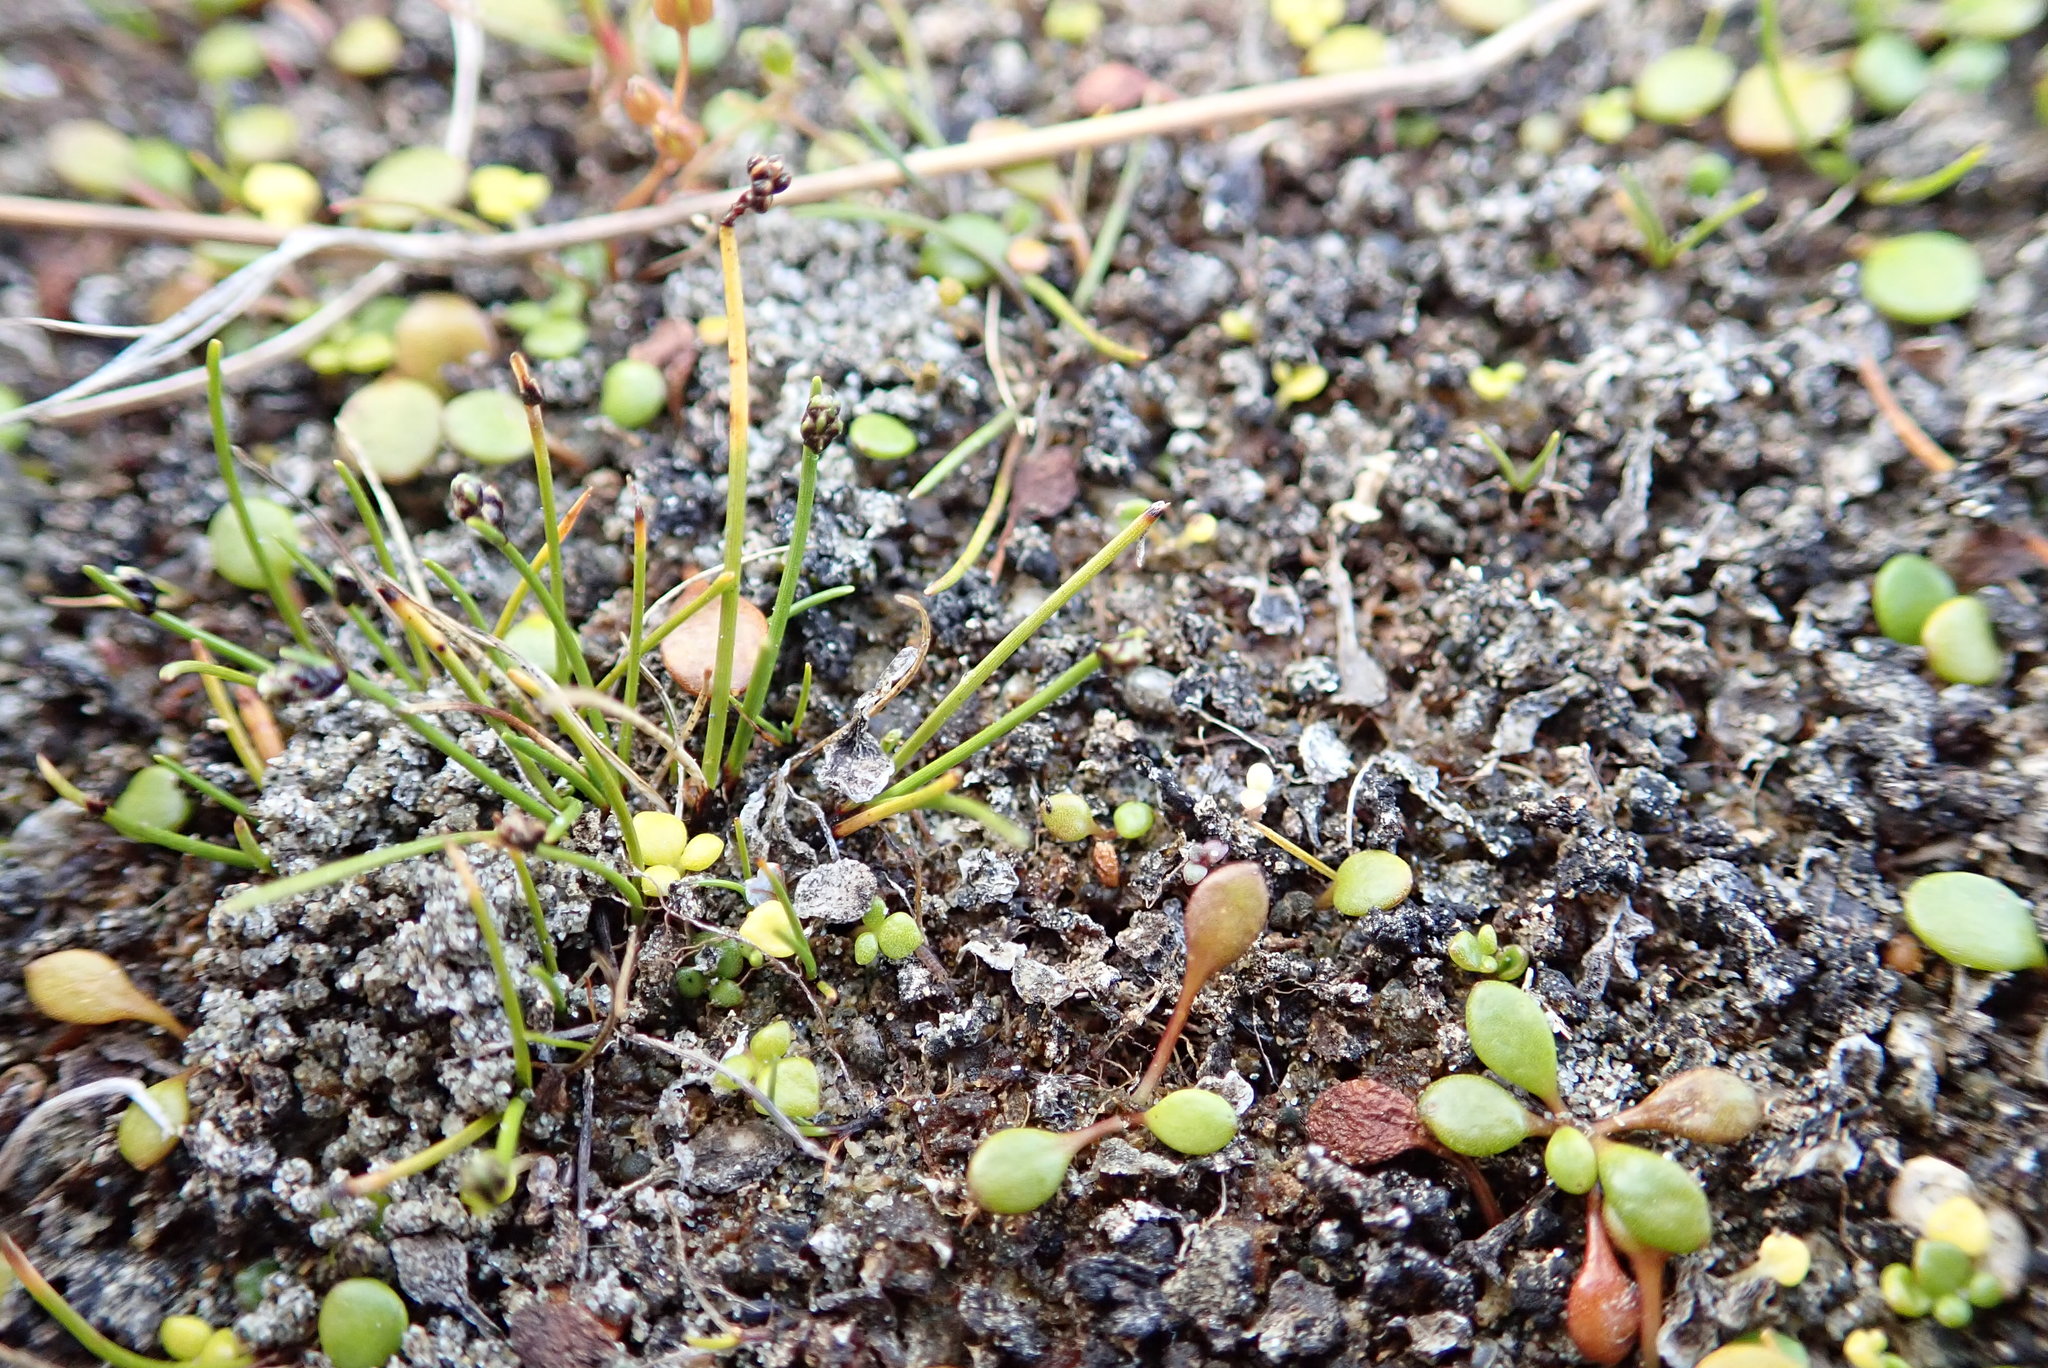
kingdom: Plantae
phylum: Tracheophyta
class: Liliopsida
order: Poales
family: Cyperaceae
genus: Isolepis
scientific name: Isolepis cernua
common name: Slender club-rush
